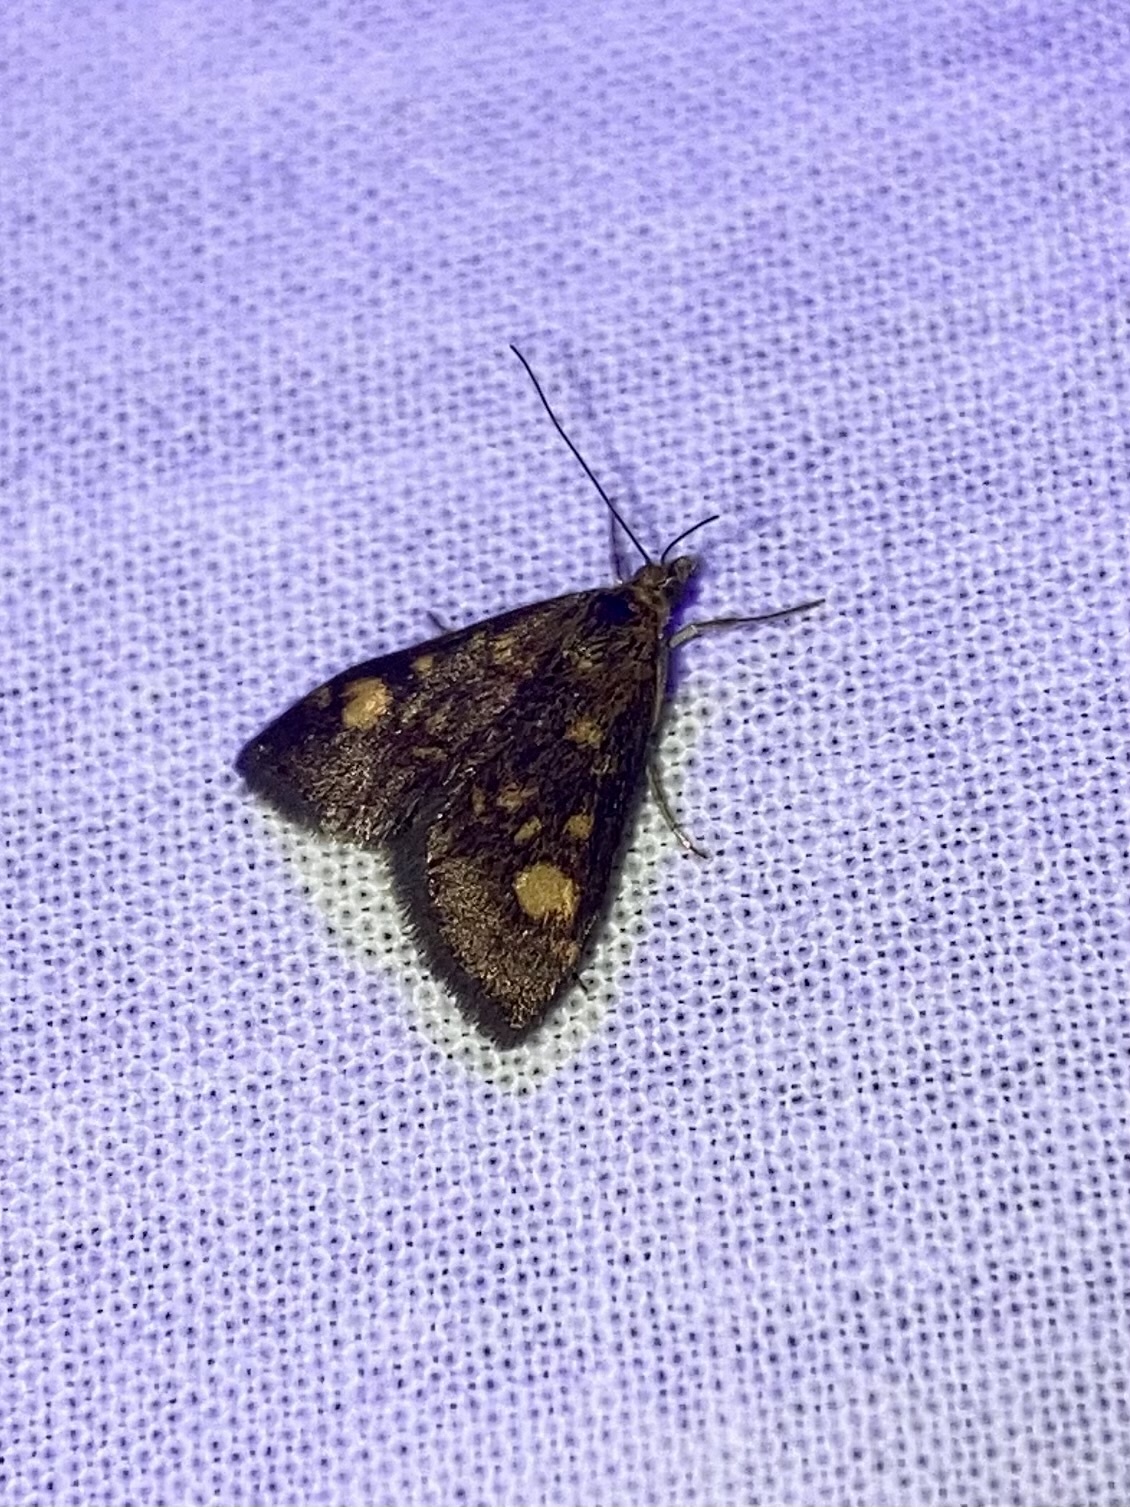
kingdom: Animalia
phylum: Arthropoda
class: Insecta
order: Lepidoptera
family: Crambidae
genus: Pyrausta
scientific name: Pyrausta aurata
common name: Small purple & gold
